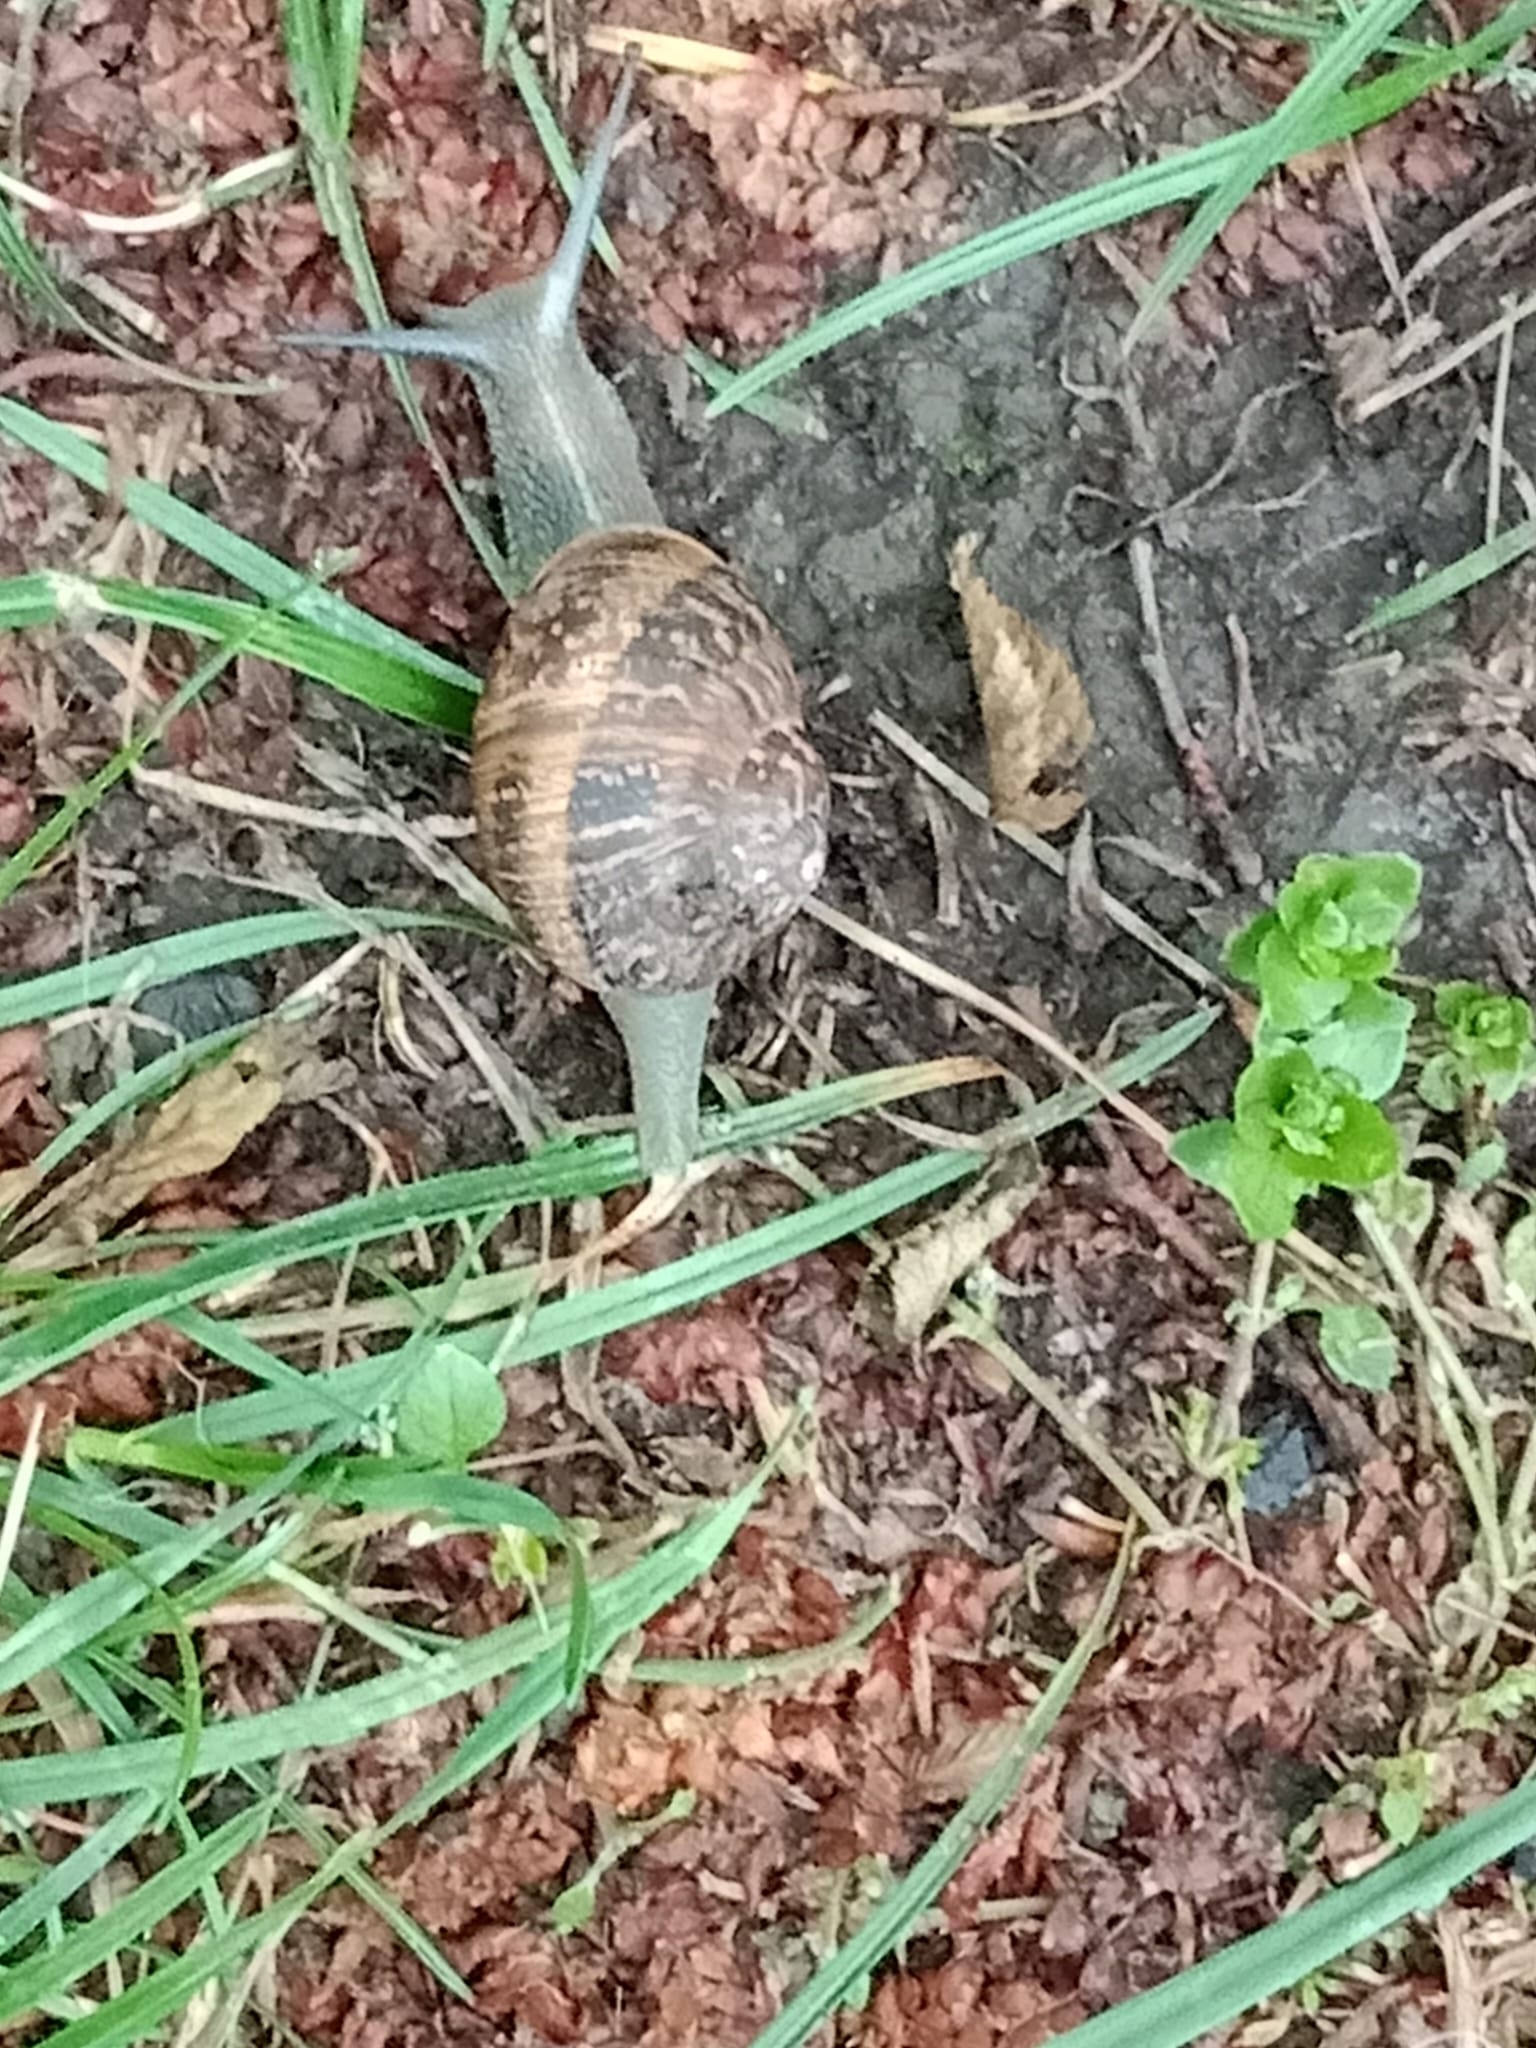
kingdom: Animalia
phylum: Mollusca
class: Gastropoda
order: Stylommatophora
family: Helicidae
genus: Cornu
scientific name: Cornu aspersum
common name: Brown garden snail
